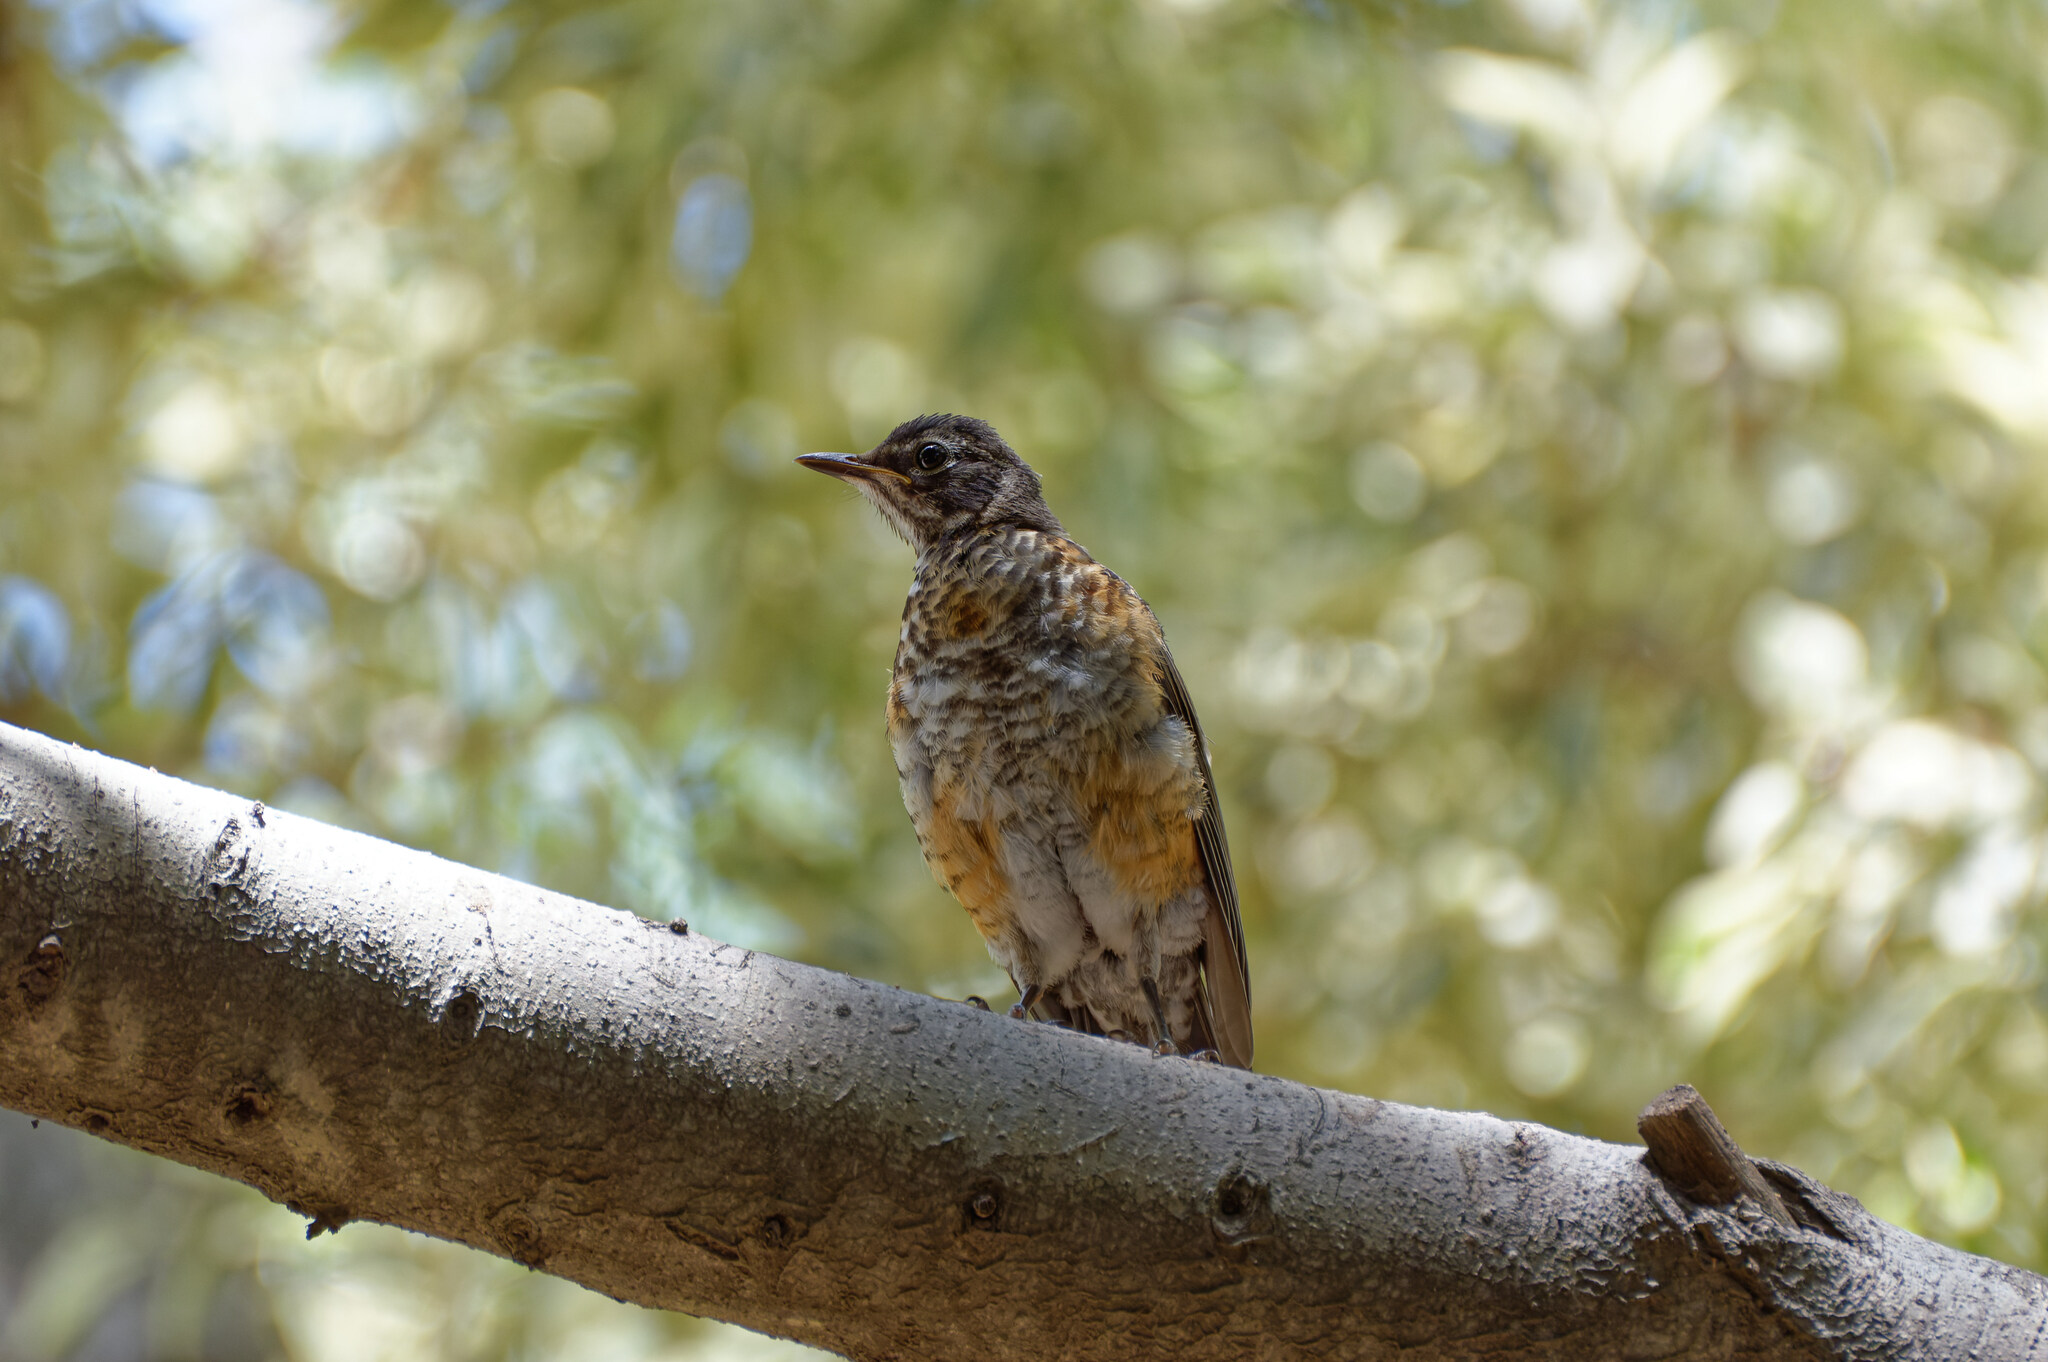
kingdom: Animalia
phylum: Chordata
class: Aves
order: Passeriformes
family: Turdidae
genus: Turdus
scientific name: Turdus migratorius
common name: American robin
